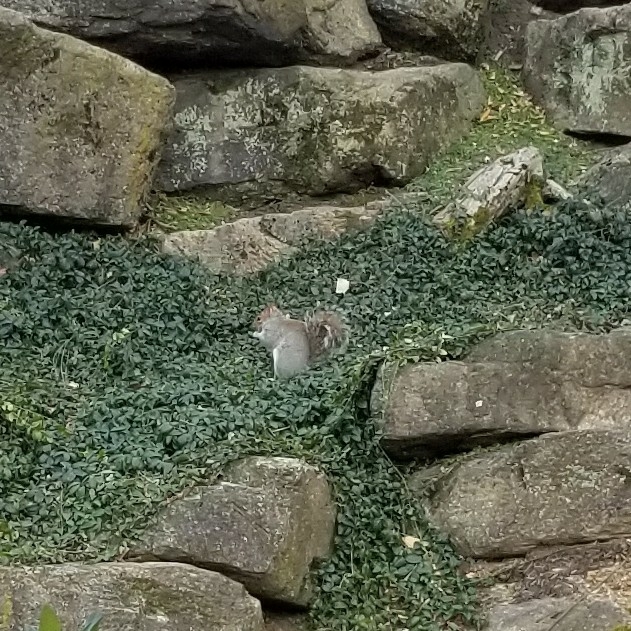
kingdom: Animalia
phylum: Chordata
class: Mammalia
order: Rodentia
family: Sciuridae
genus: Sciurus
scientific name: Sciurus carolinensis
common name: Eastern gray squirrel
